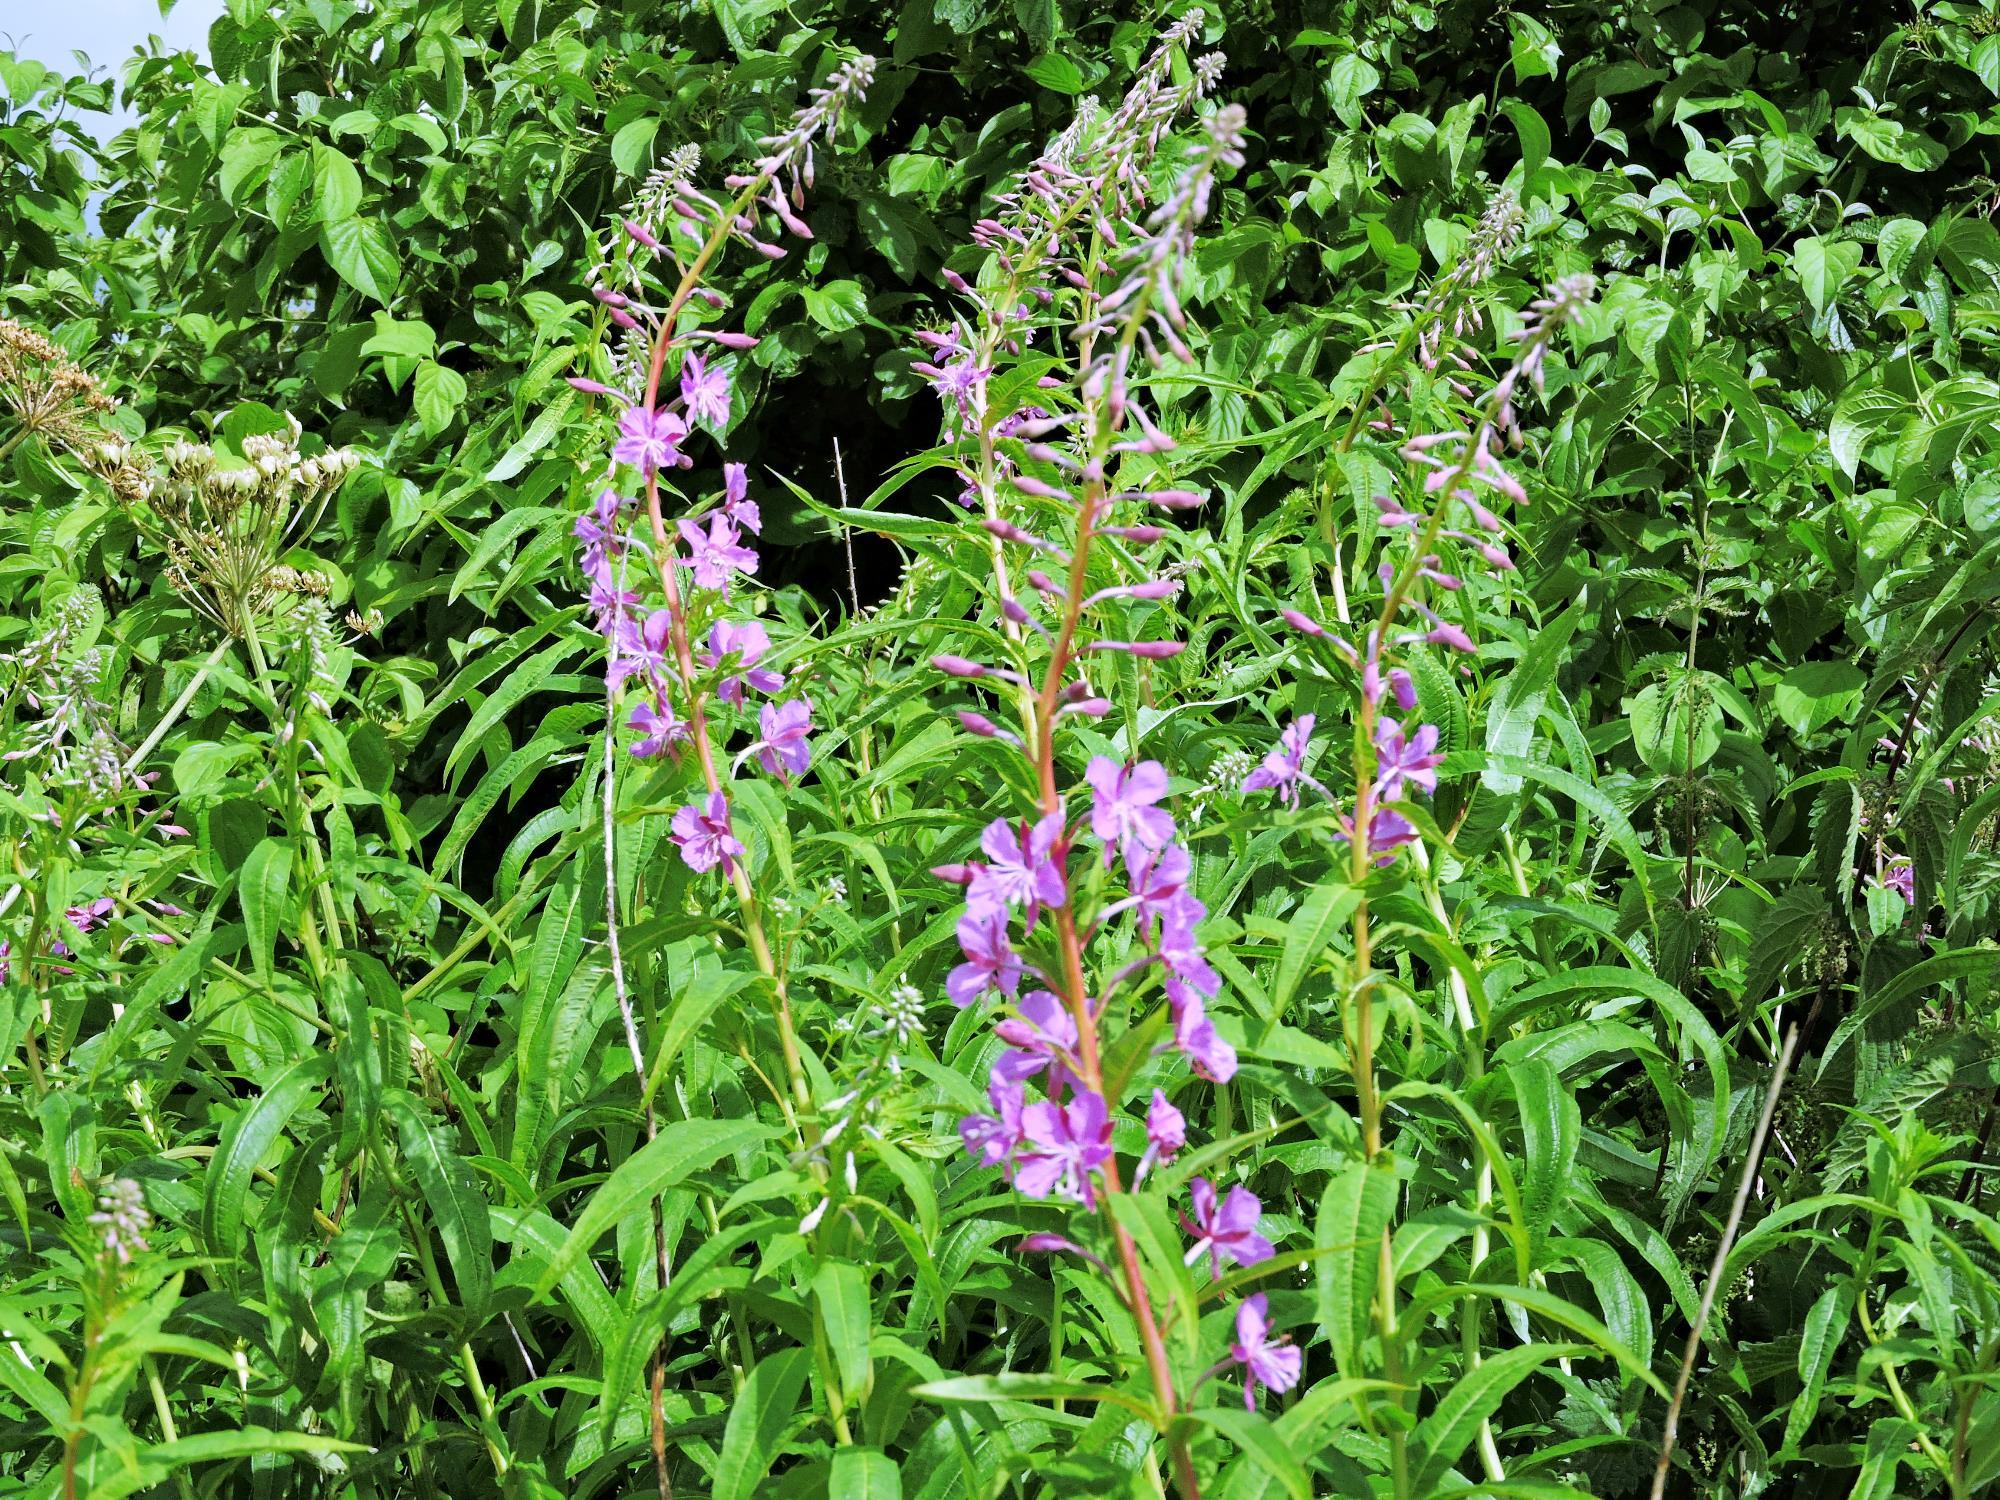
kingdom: Plantae
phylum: Tracheophyta
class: Magnoliopsida
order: Myrtales
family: Onagraceae
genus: Chamaenerion
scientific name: Chamaenerion angustifolium
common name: Fireweed
